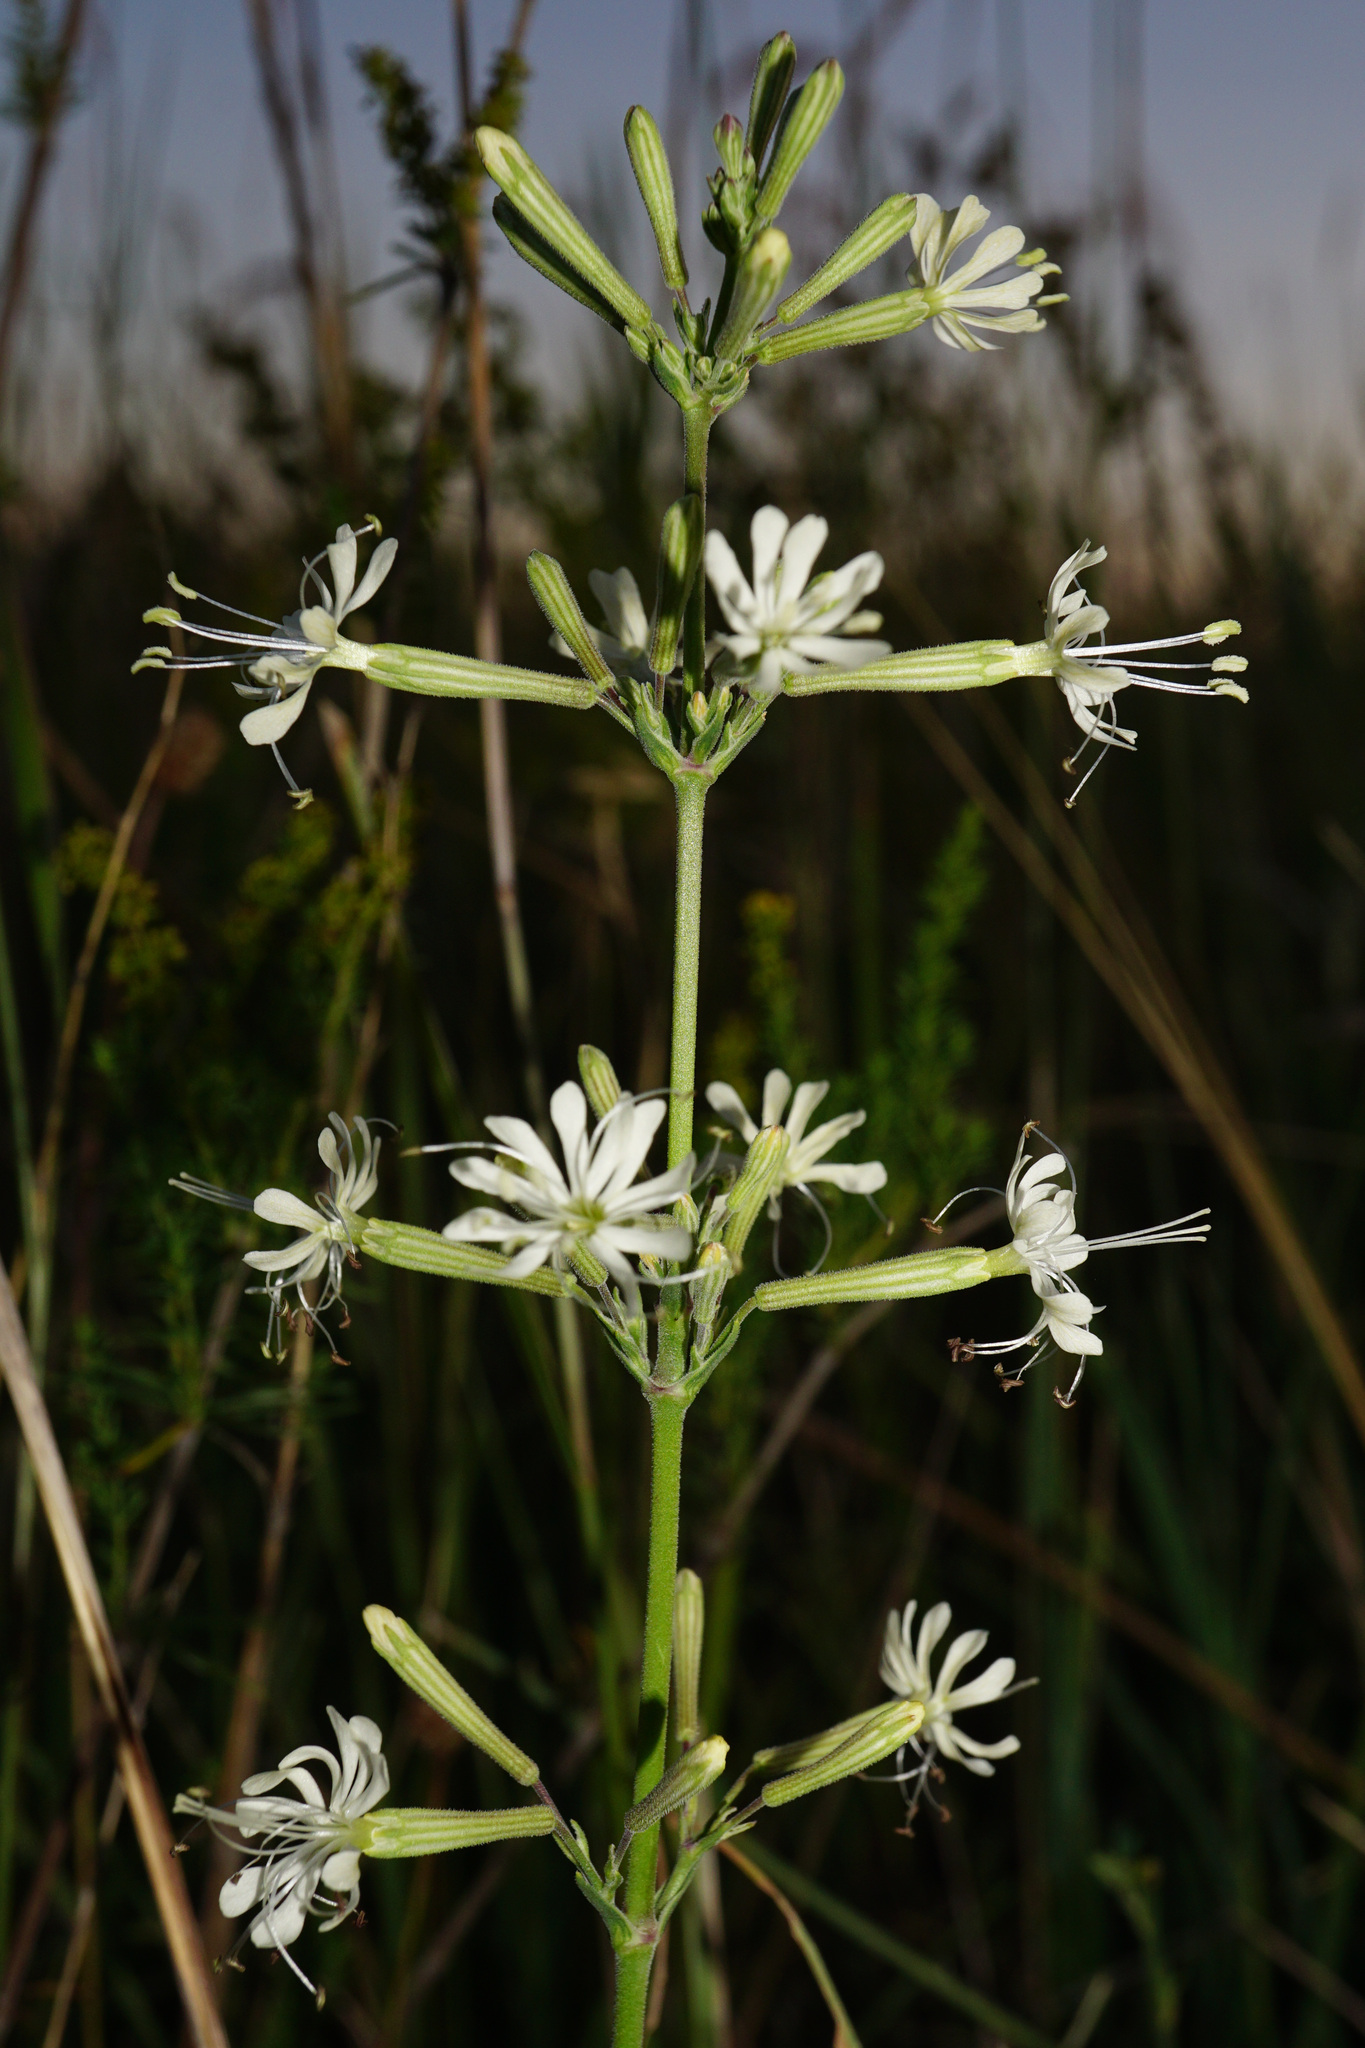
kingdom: Plantae
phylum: Tracheophyta
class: Magnoliopsida
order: Caryophyllales
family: Caryophyllaceae
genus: Silene
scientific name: Silene multiflora
